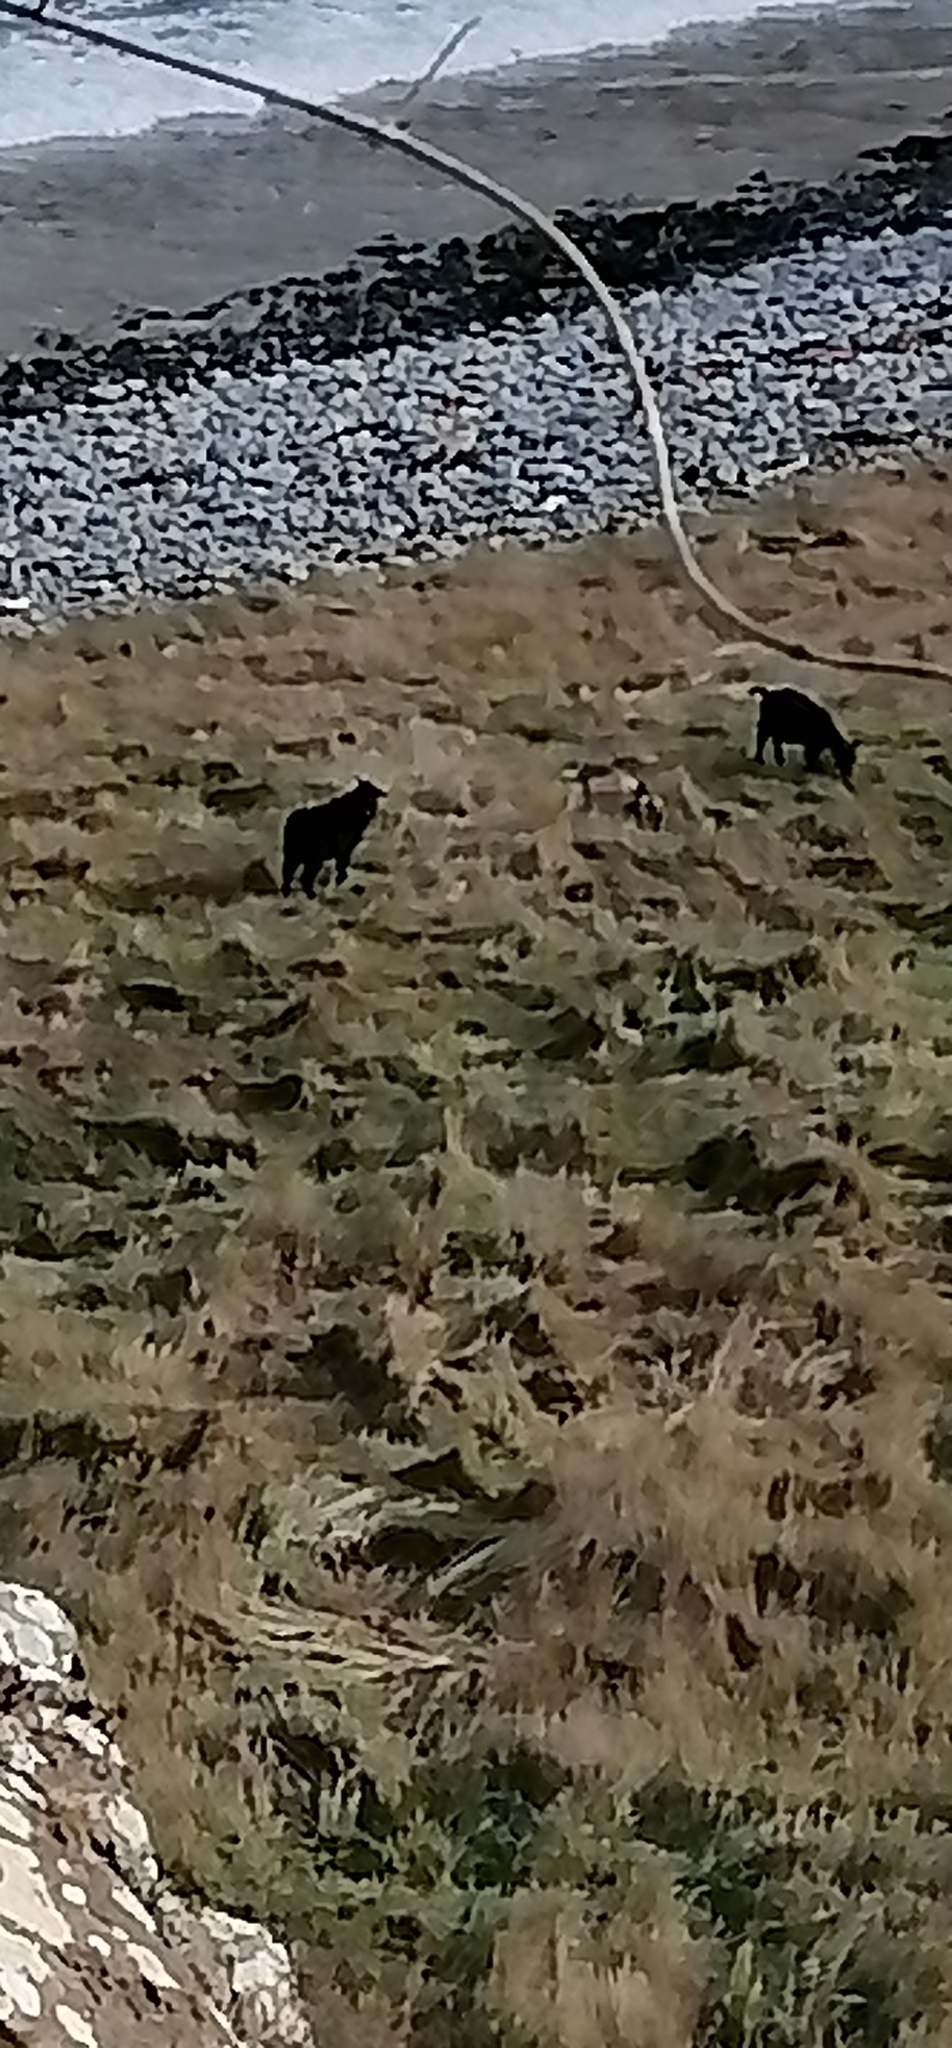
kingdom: Animalia
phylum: Chordata
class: Mammalia
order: Artiodactyla
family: Bovidae
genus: Capra
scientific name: Capra hircus
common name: Domestic goat
